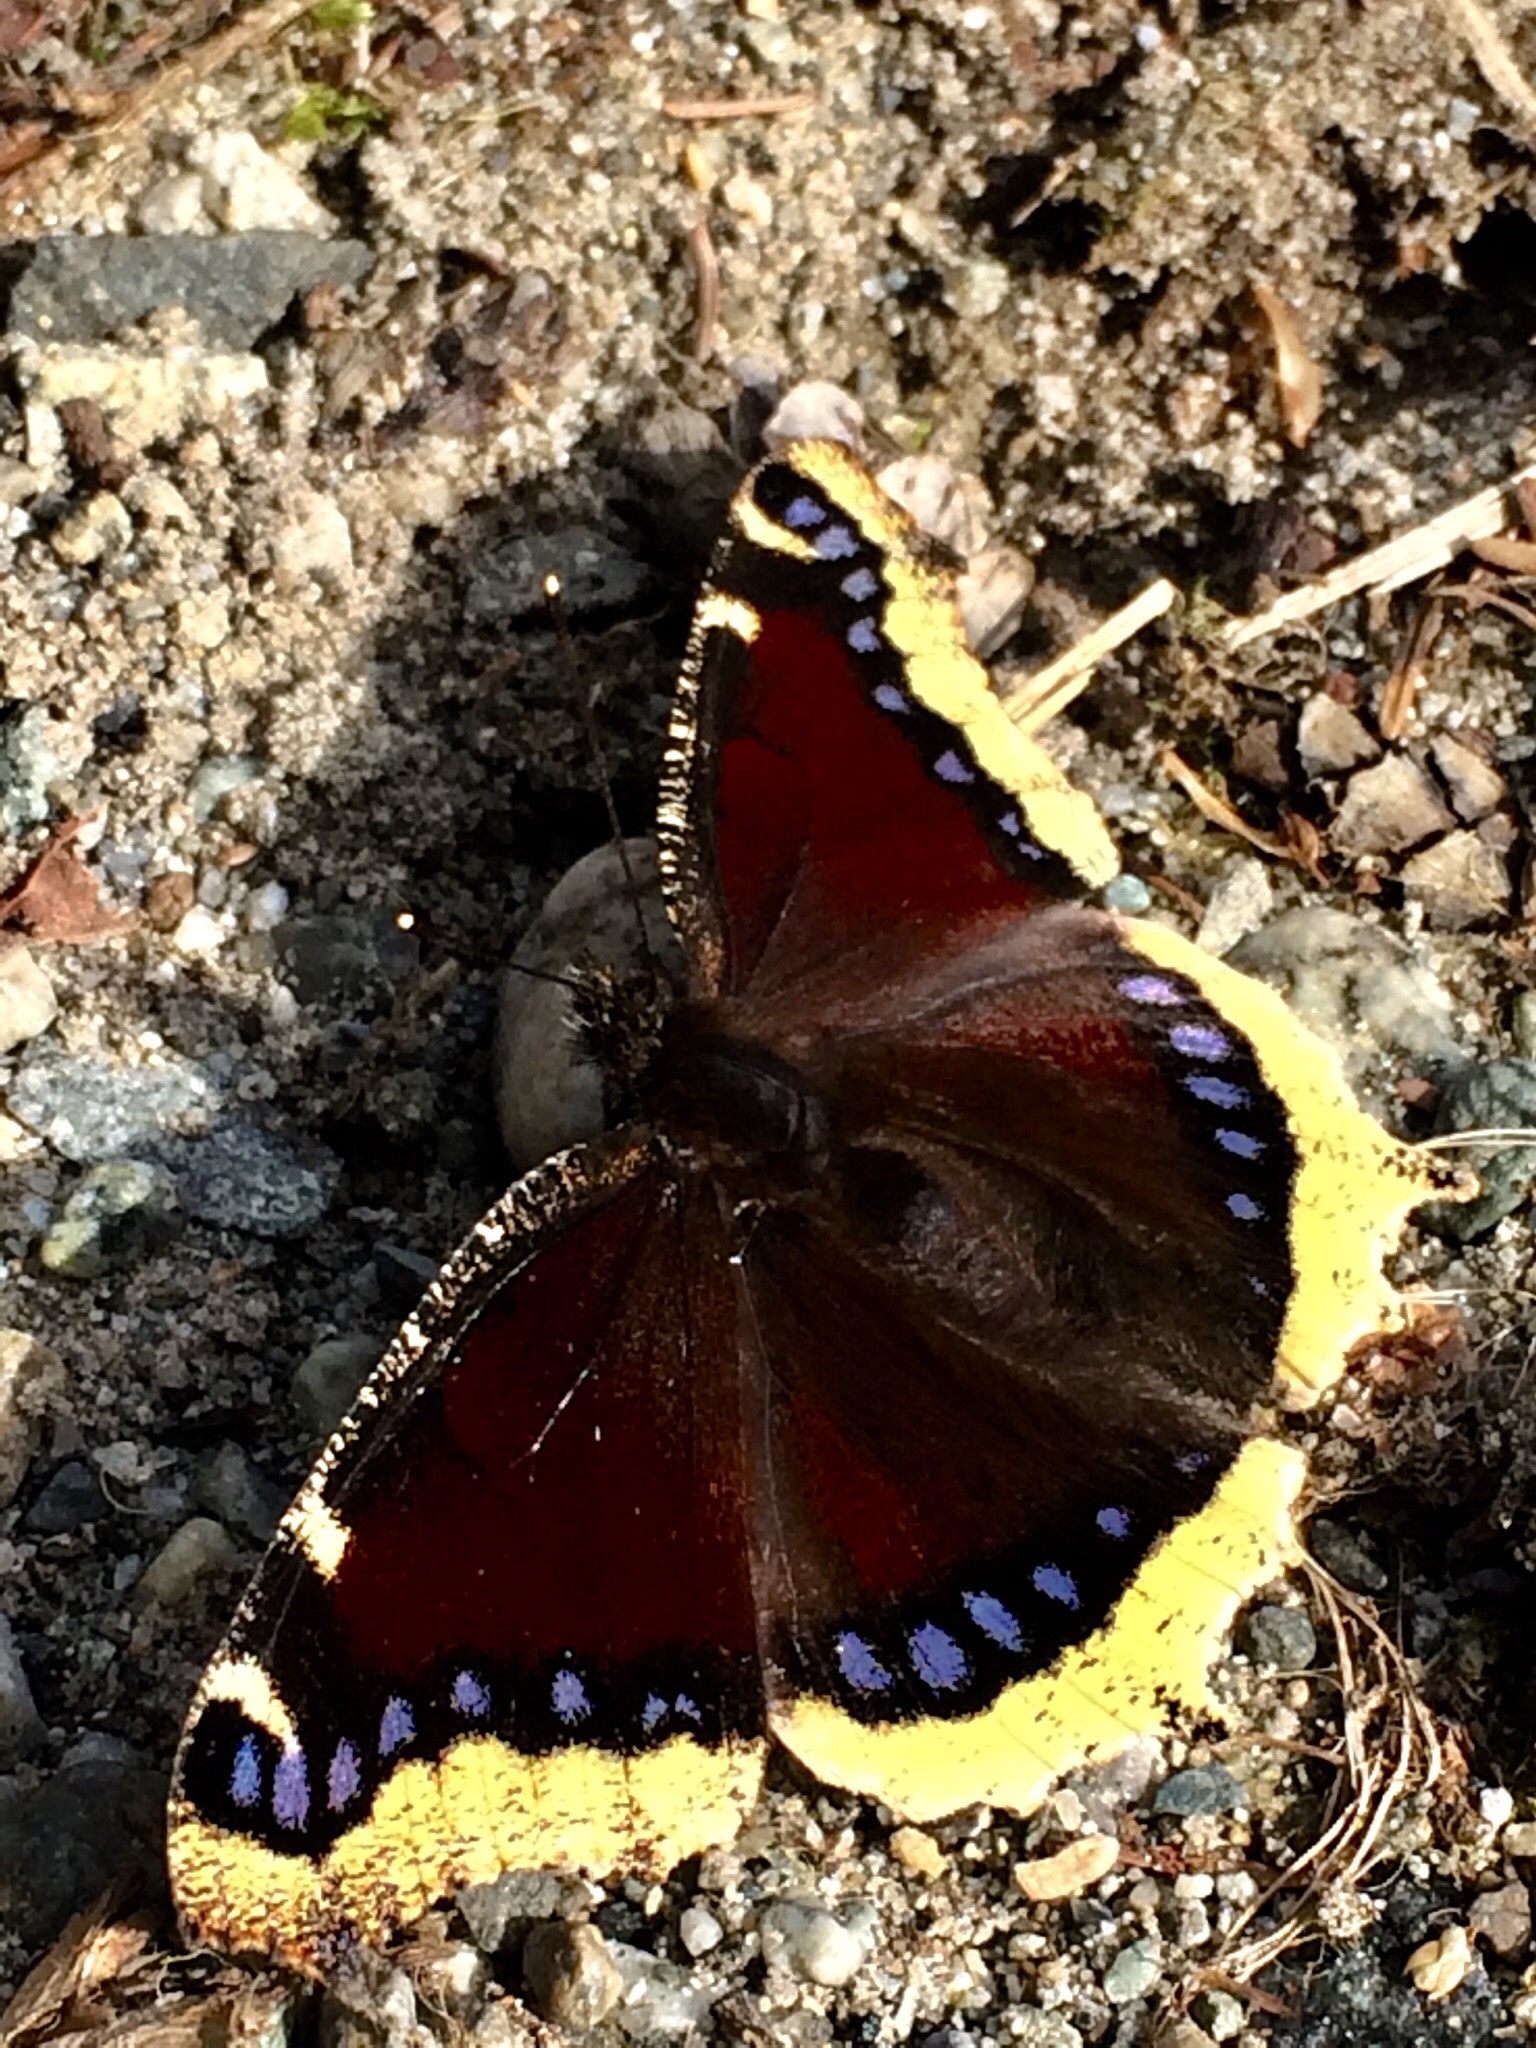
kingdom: Animalia
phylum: Arthropoda
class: Insecta
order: Lepidoptera
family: Nymphalidae
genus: Nymphalis
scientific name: Nymphalis antiopa
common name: Camberwell beauty
